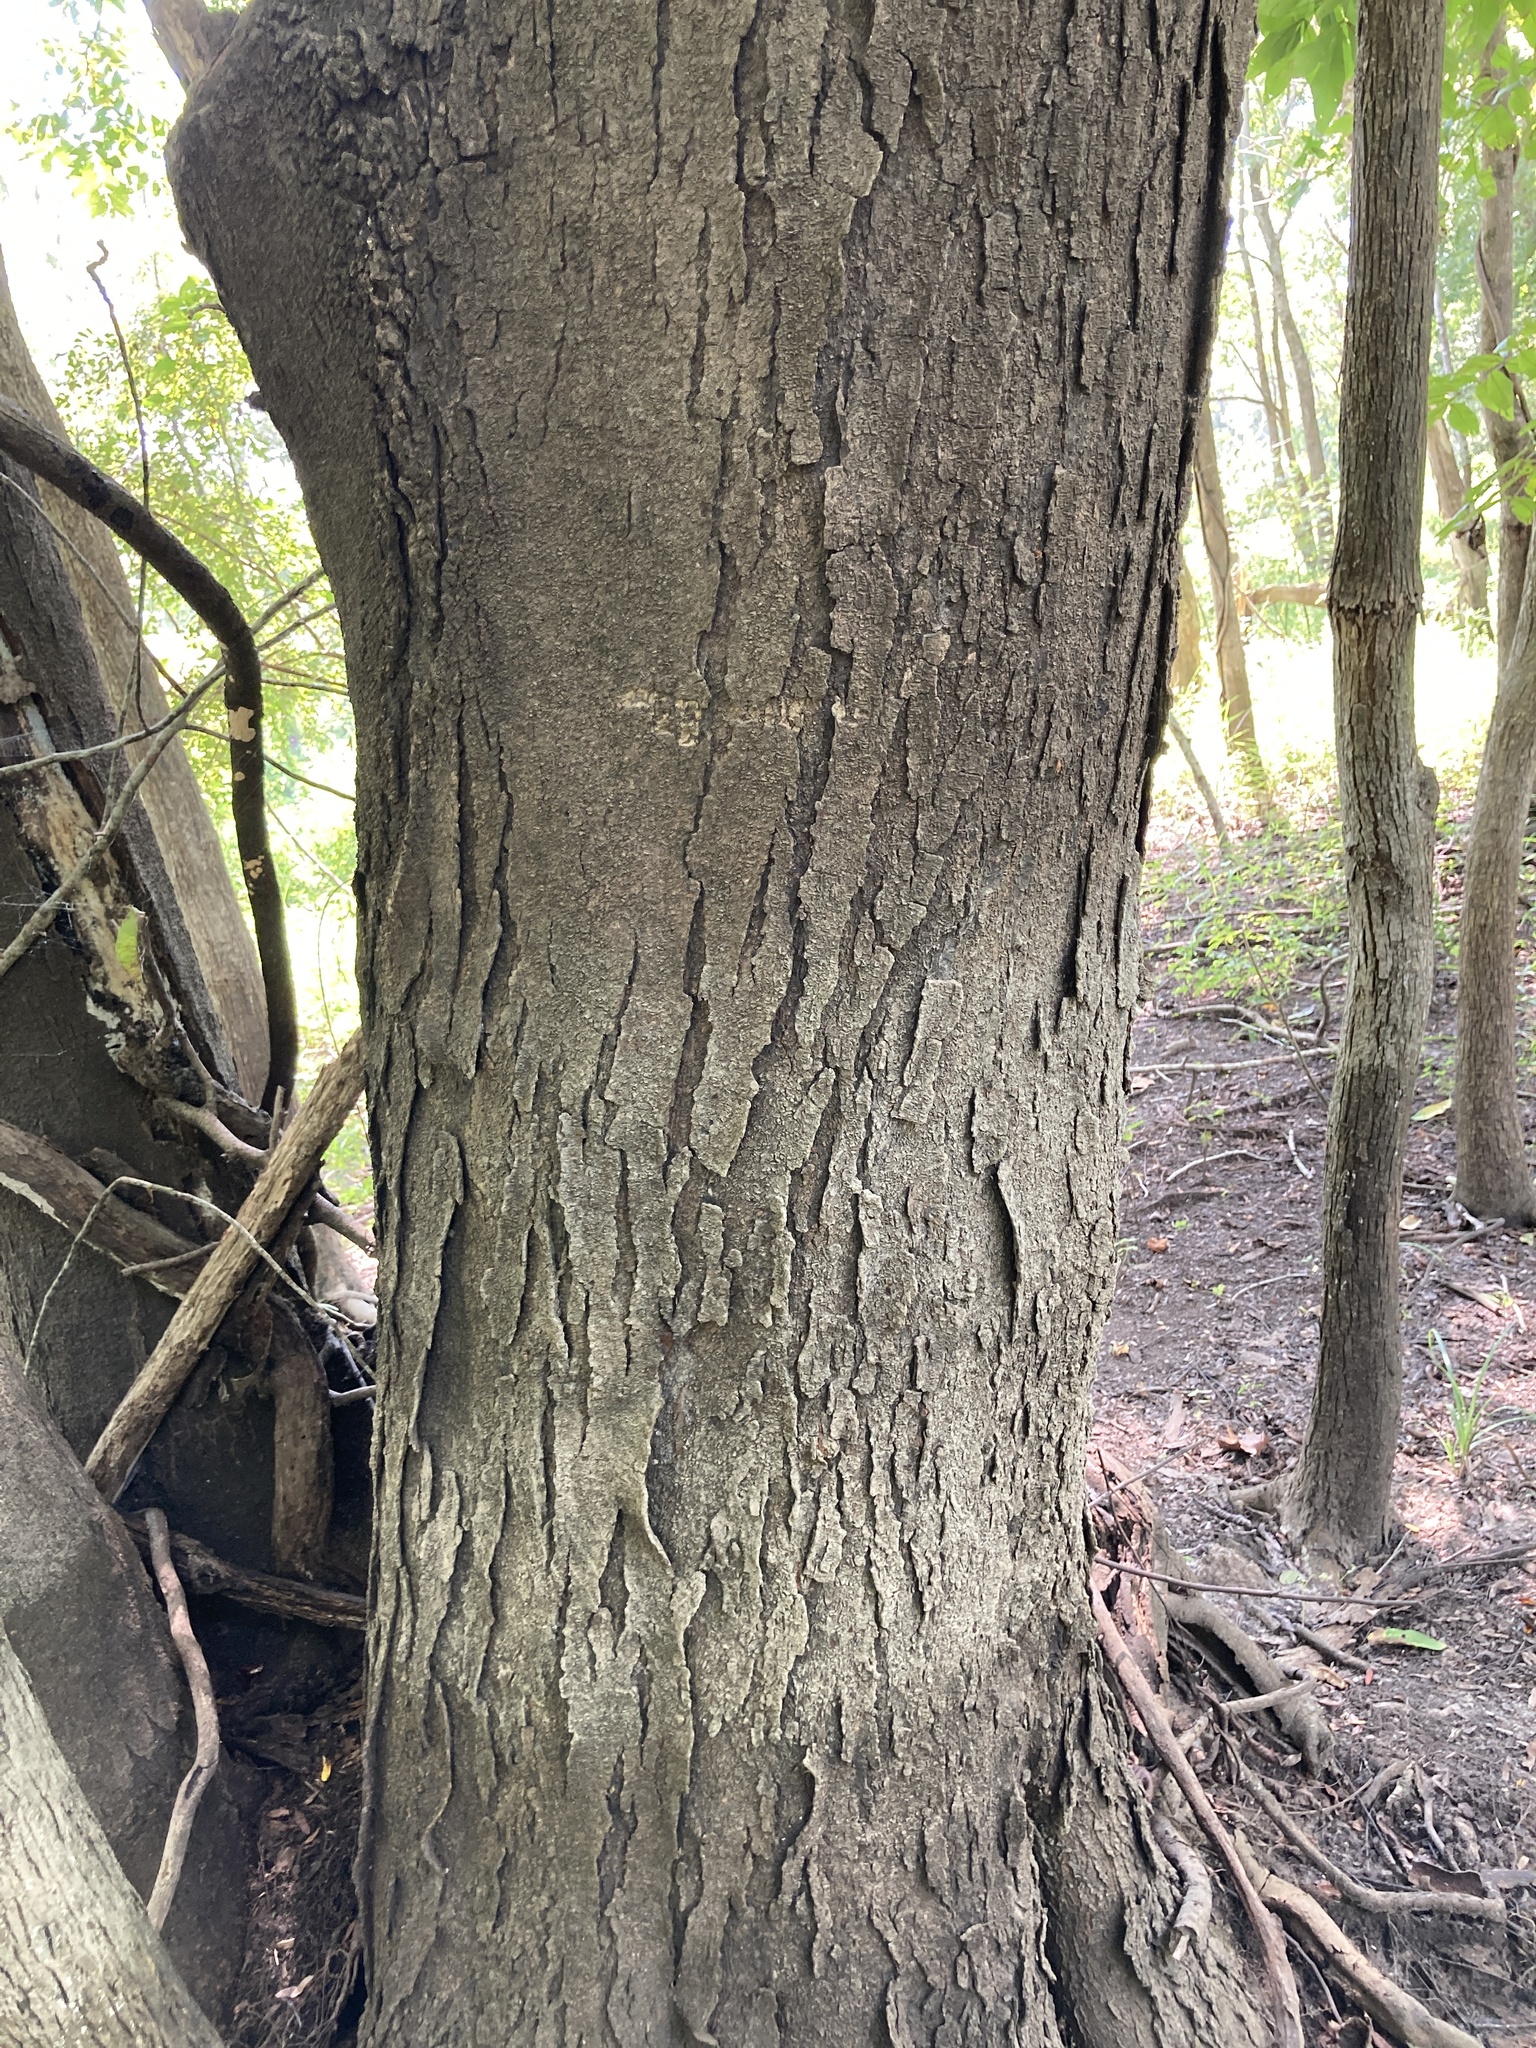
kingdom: Plantae
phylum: Tracheophyta
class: Magnoliopsida
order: Fabales
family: Fabaceae
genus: Gleditsia
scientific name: Gleditsia triacanthos
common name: Common honeylocust
